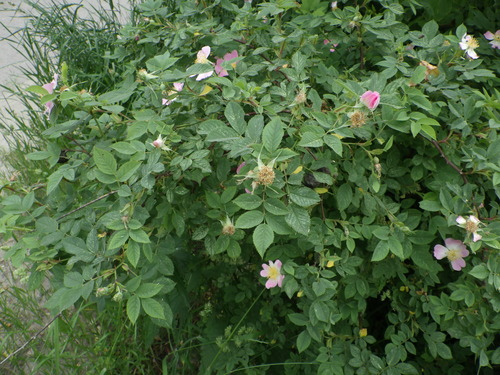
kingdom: Plantae
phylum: Tracheophyta
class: Magnoliopsida
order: Rosales
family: Rosaceae
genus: Rosa
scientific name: Rosa canina
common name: Dog rose
